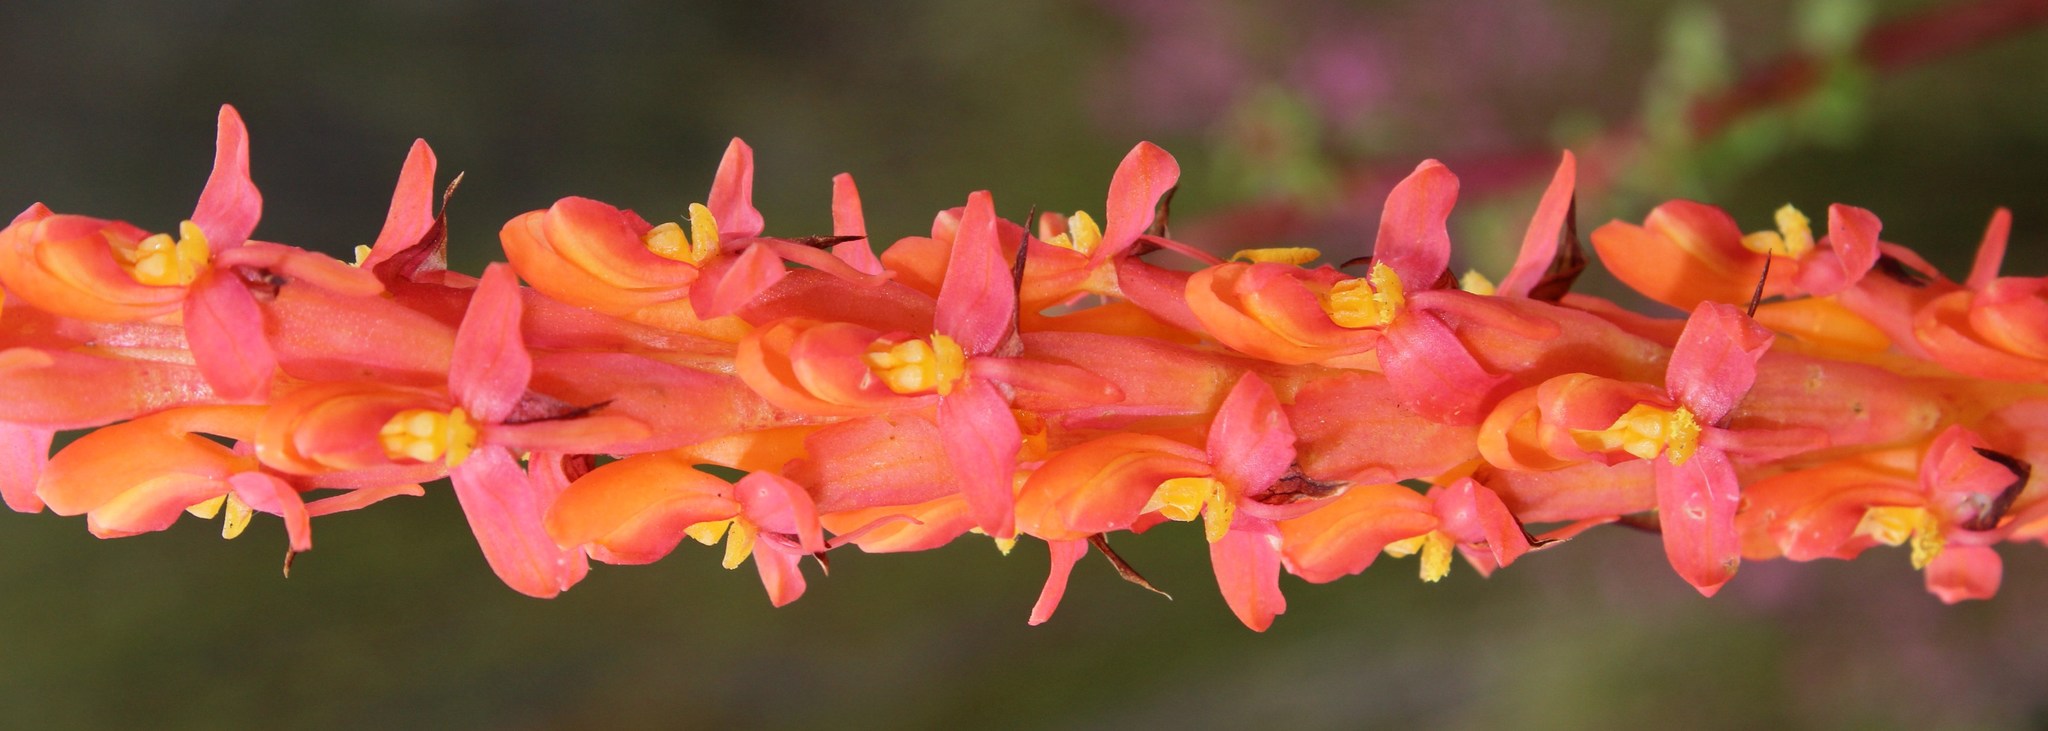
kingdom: Plantae
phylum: Tracheophyta
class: Liliopsida
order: Asparagales
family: Orchidaceae
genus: Disa
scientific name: Disa chrysostachya
